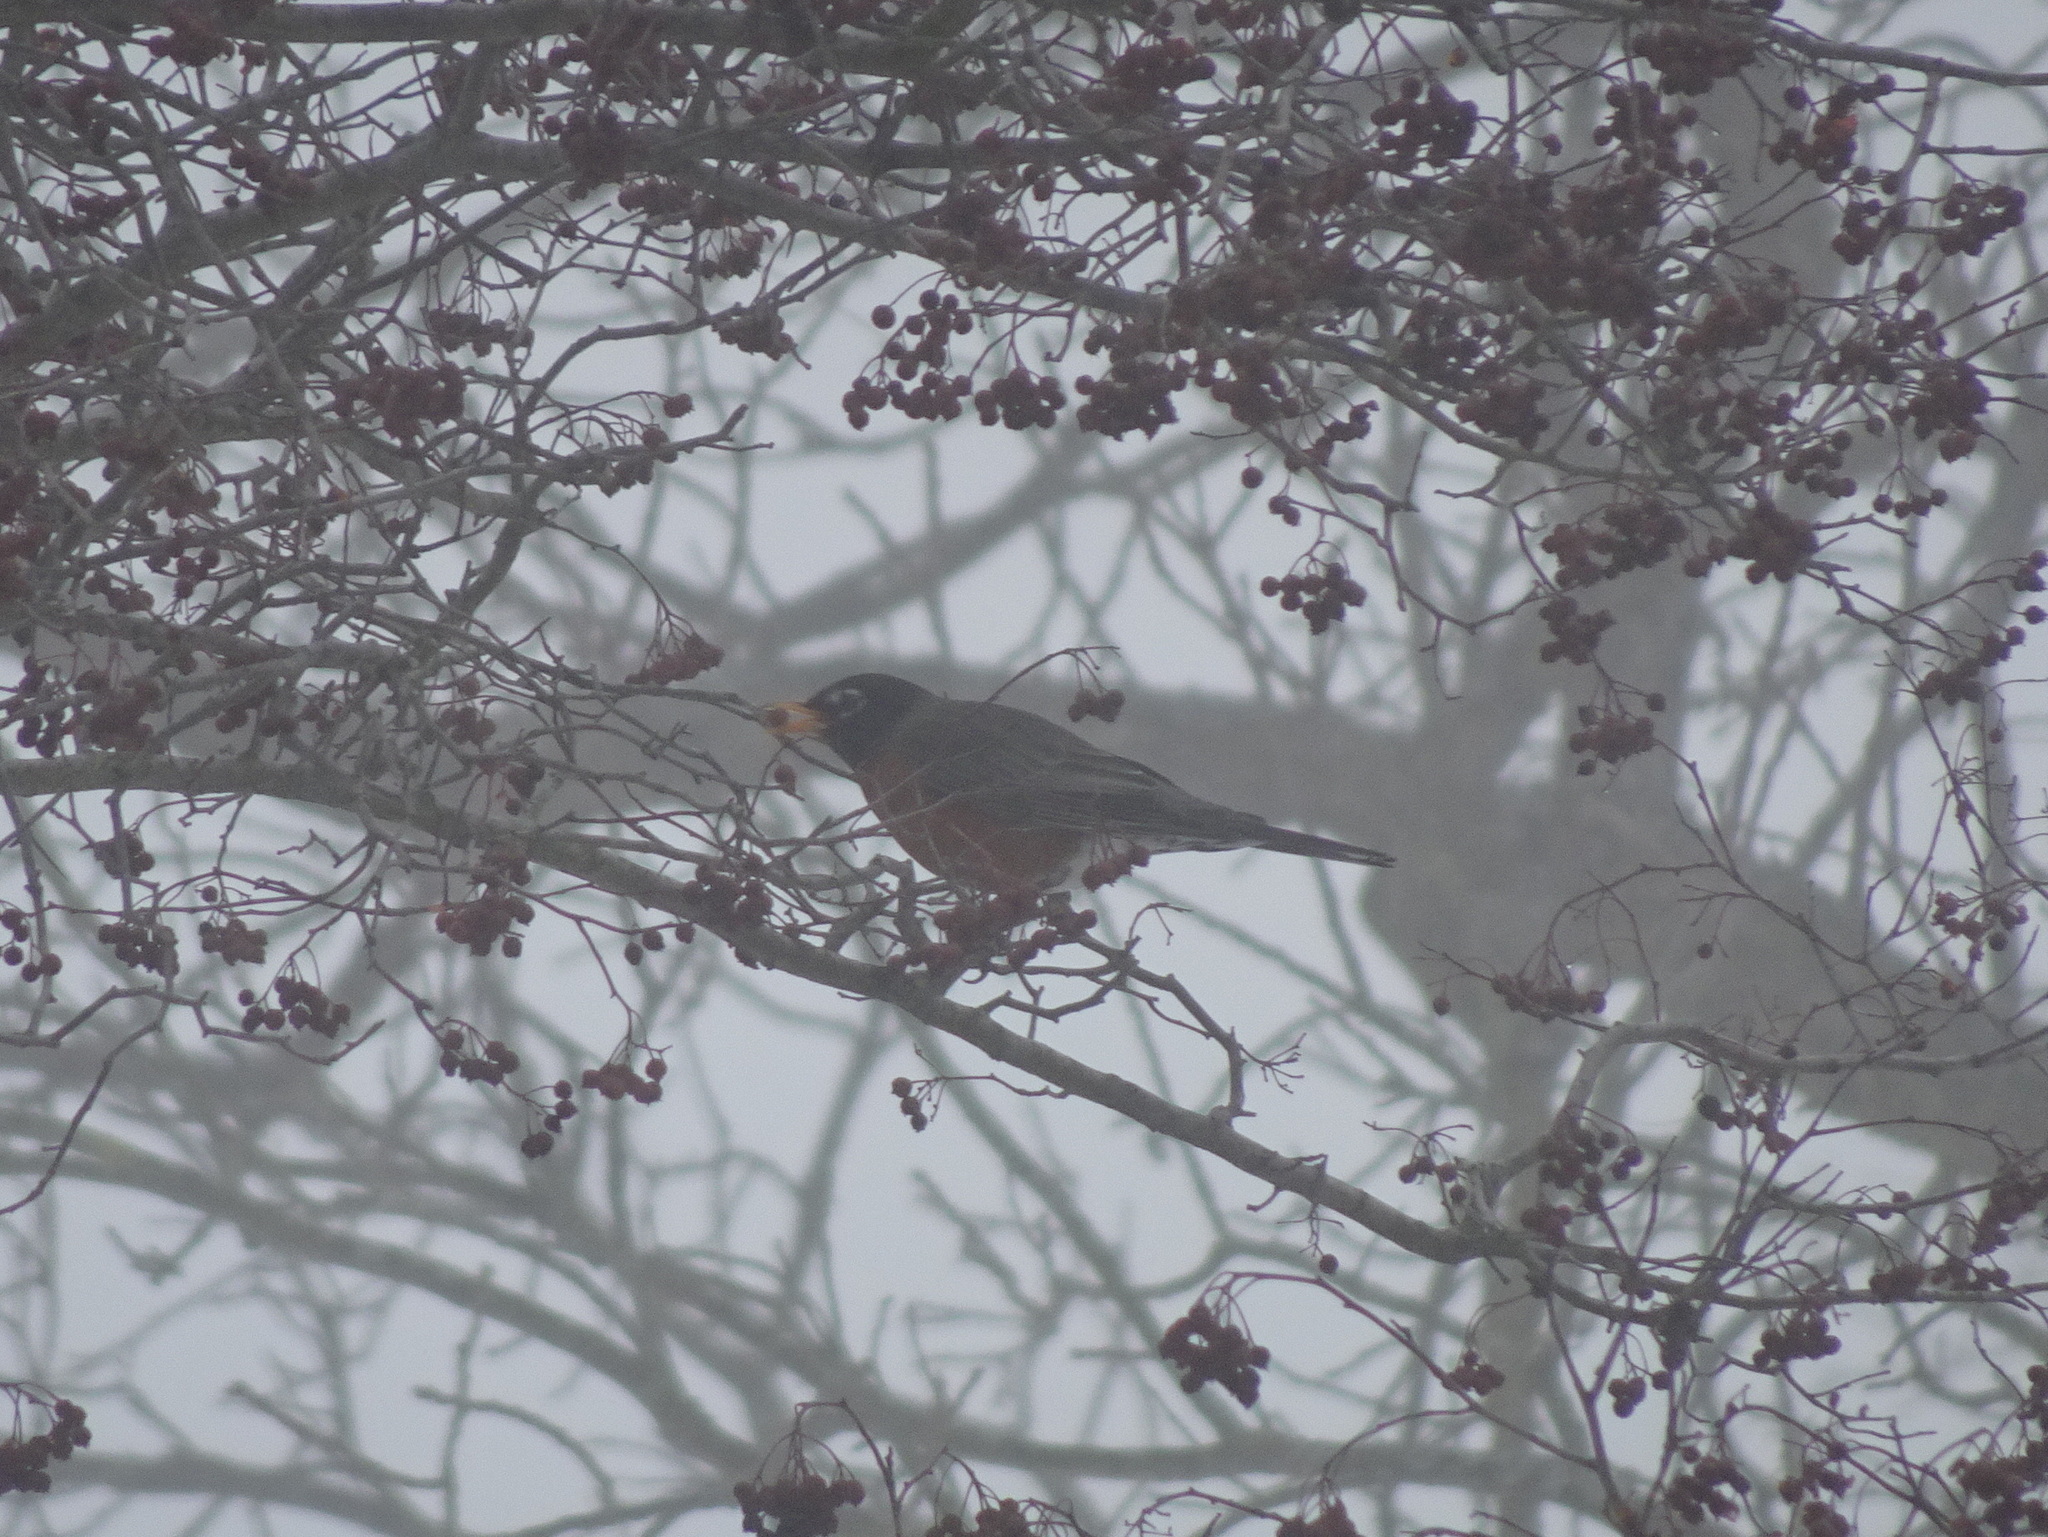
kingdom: Animalia
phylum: Chordata
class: Aves
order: Passeriformes
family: Turdidae
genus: Turdus
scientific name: Turdus migratorius
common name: American robin
